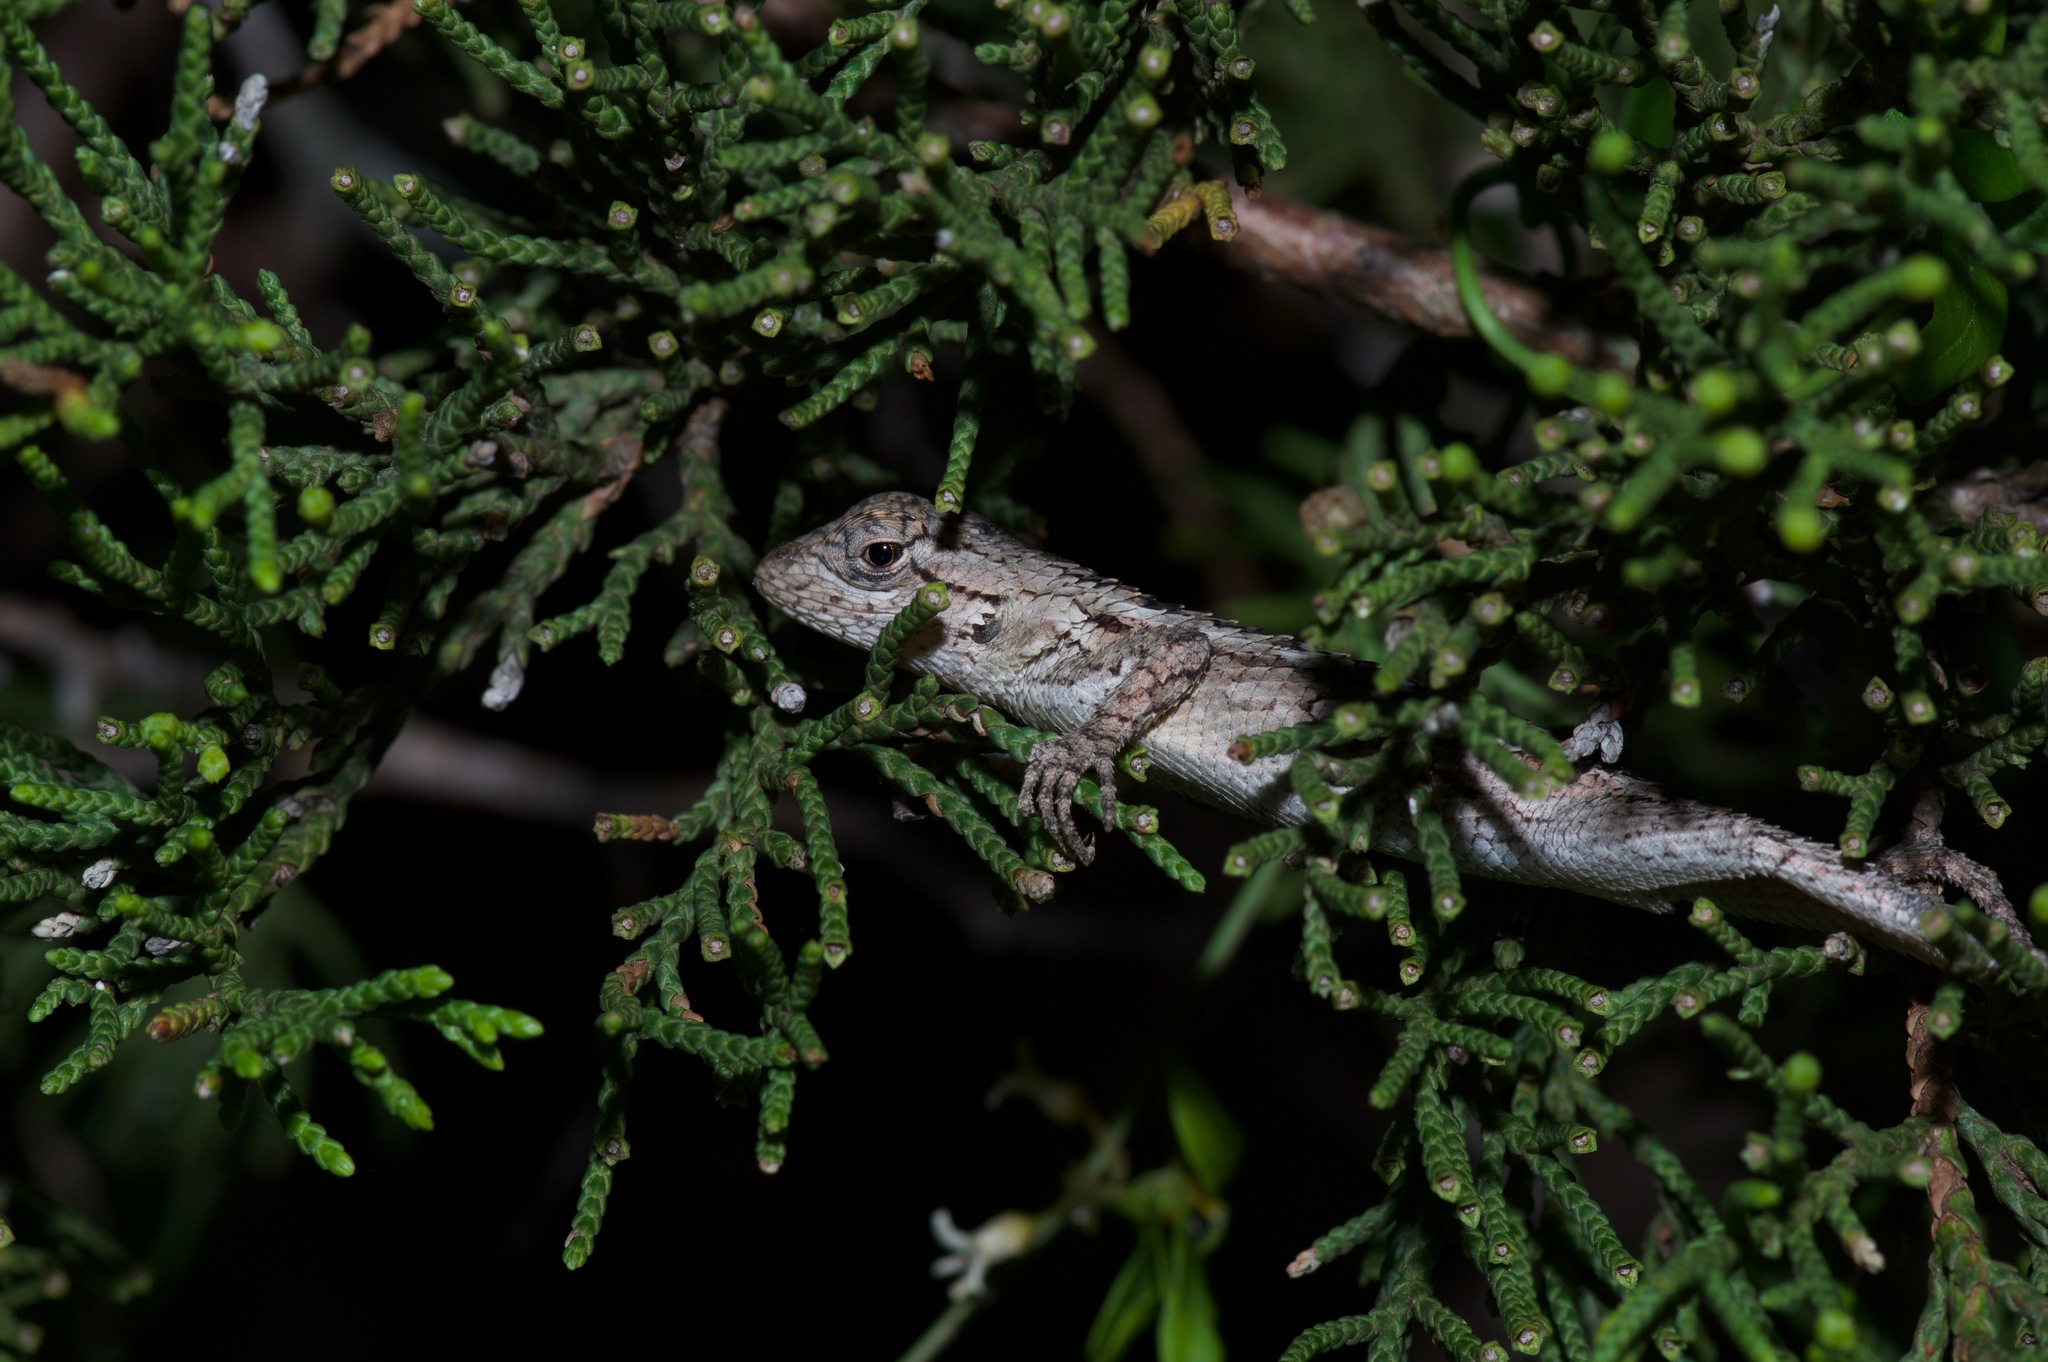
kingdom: Animalia
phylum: Chordata
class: Squamata
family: Phrynosomatidae
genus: Sceloporus
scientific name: Sceloporus olivaceus
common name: Texas spiny lizard
